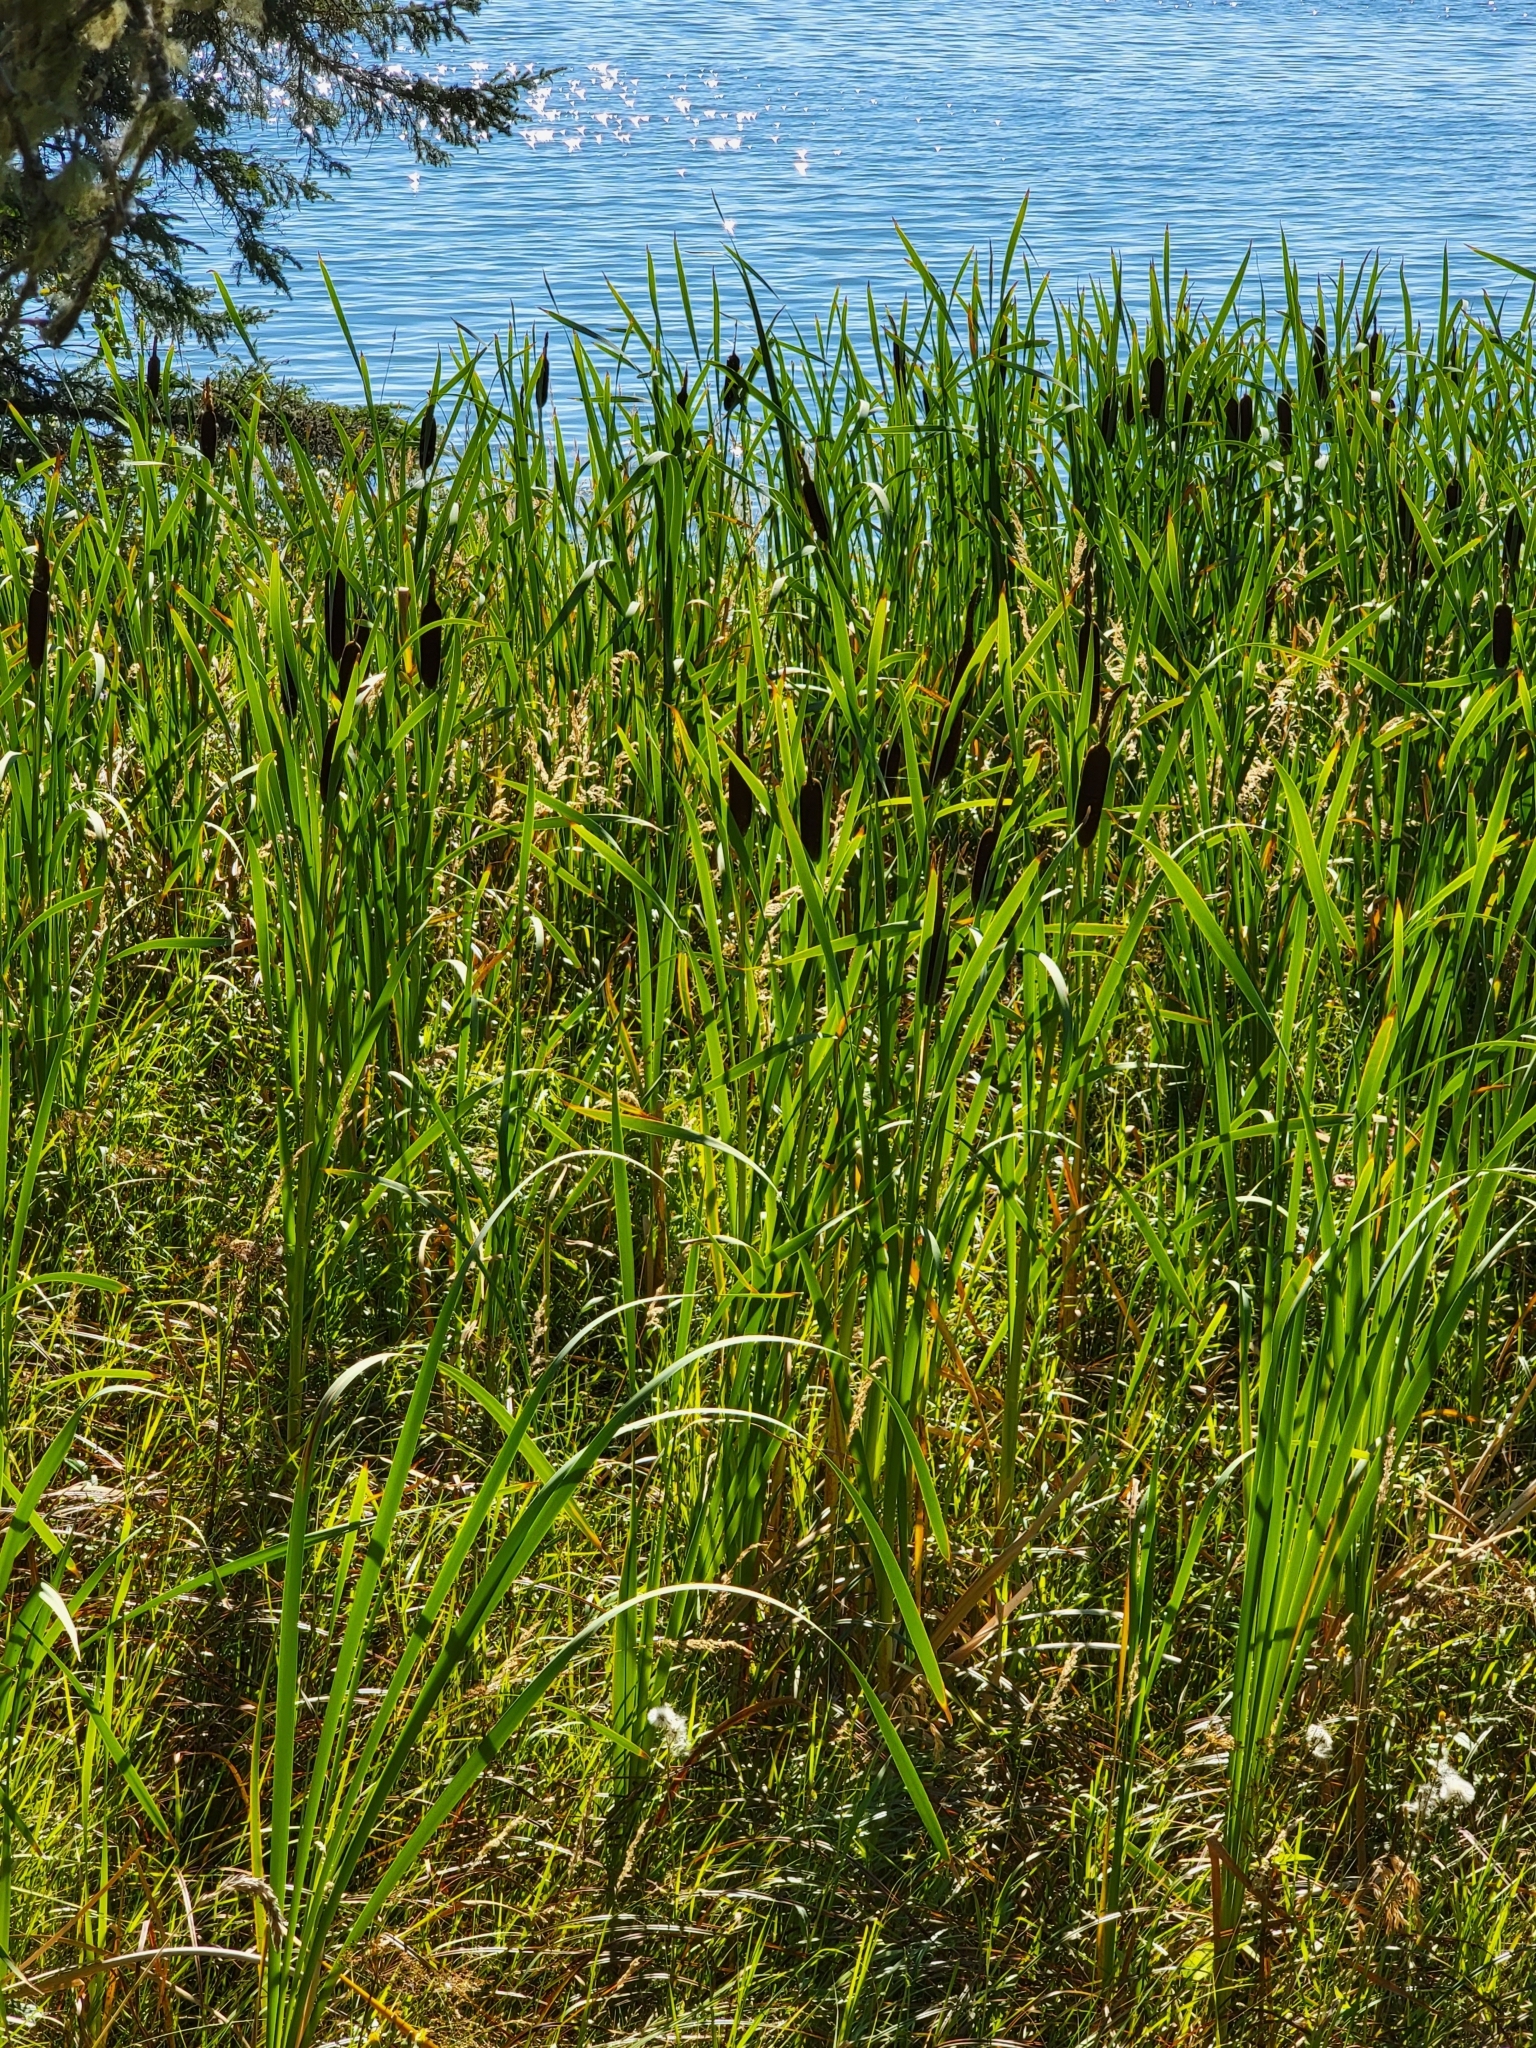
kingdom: Plantae
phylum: Tracheophyta
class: Liliopsida
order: Poales
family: Typhaceae
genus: Typha
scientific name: Typha latifolia
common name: Broadleaf cattail
